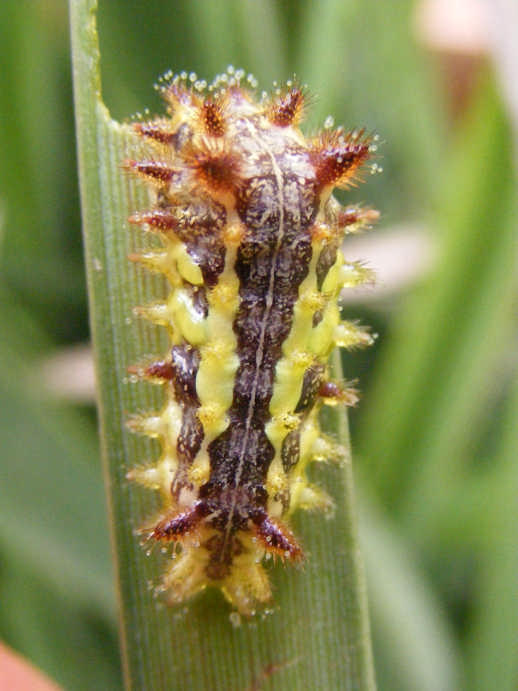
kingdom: Animalia
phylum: Arthropoda
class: Insecta
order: Lepidoptera
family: Limacodidae
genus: Neomocena
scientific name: Neomocena convergens
